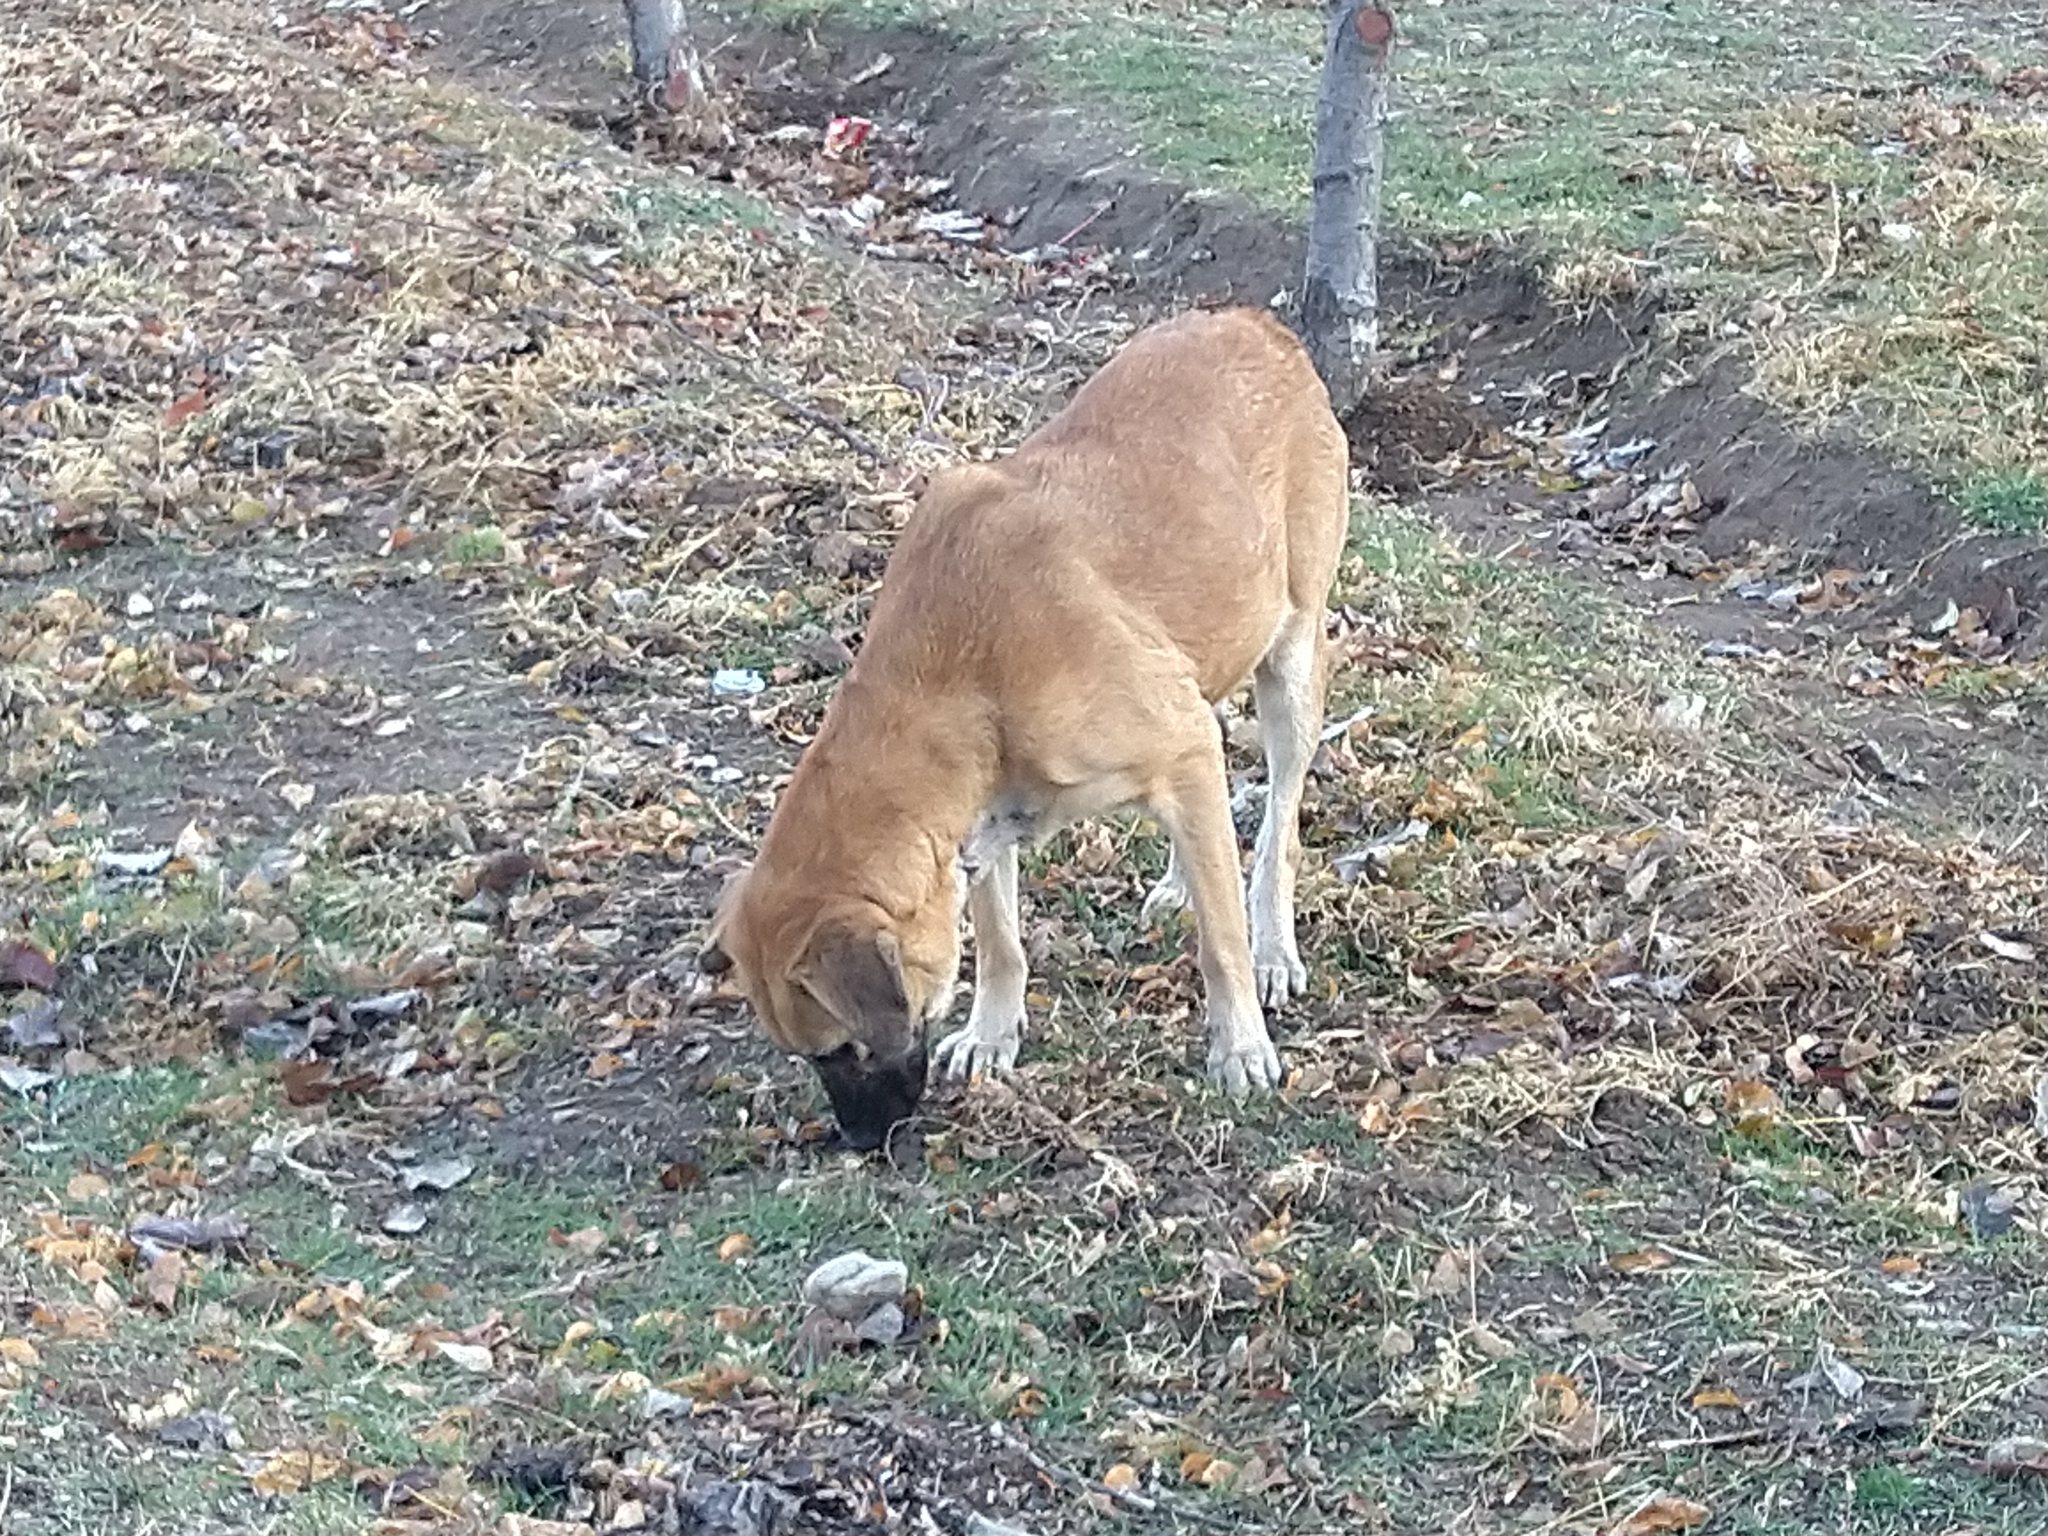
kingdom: Animalia
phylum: Chordata
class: Mammalia
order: Carnivora
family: Canidae
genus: Canis
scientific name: Canis lupus
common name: Gray wolf
